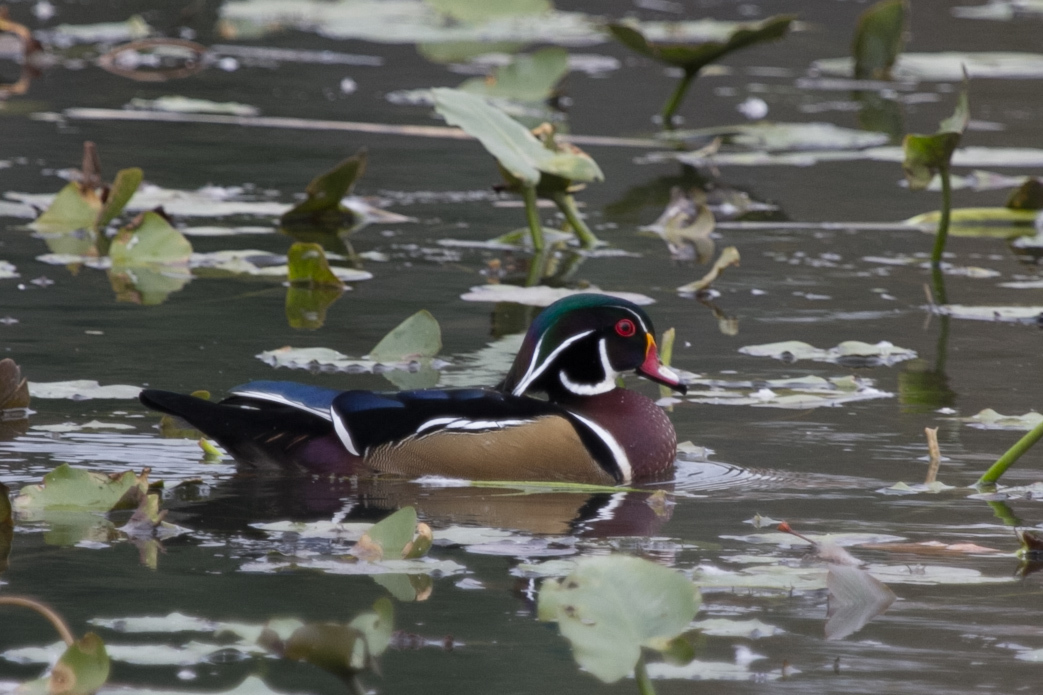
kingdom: Animalia
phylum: Chordata
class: Aves
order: Anseriformes
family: Anatidae
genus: Aix
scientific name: Aix sponsa
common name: Wood duck
